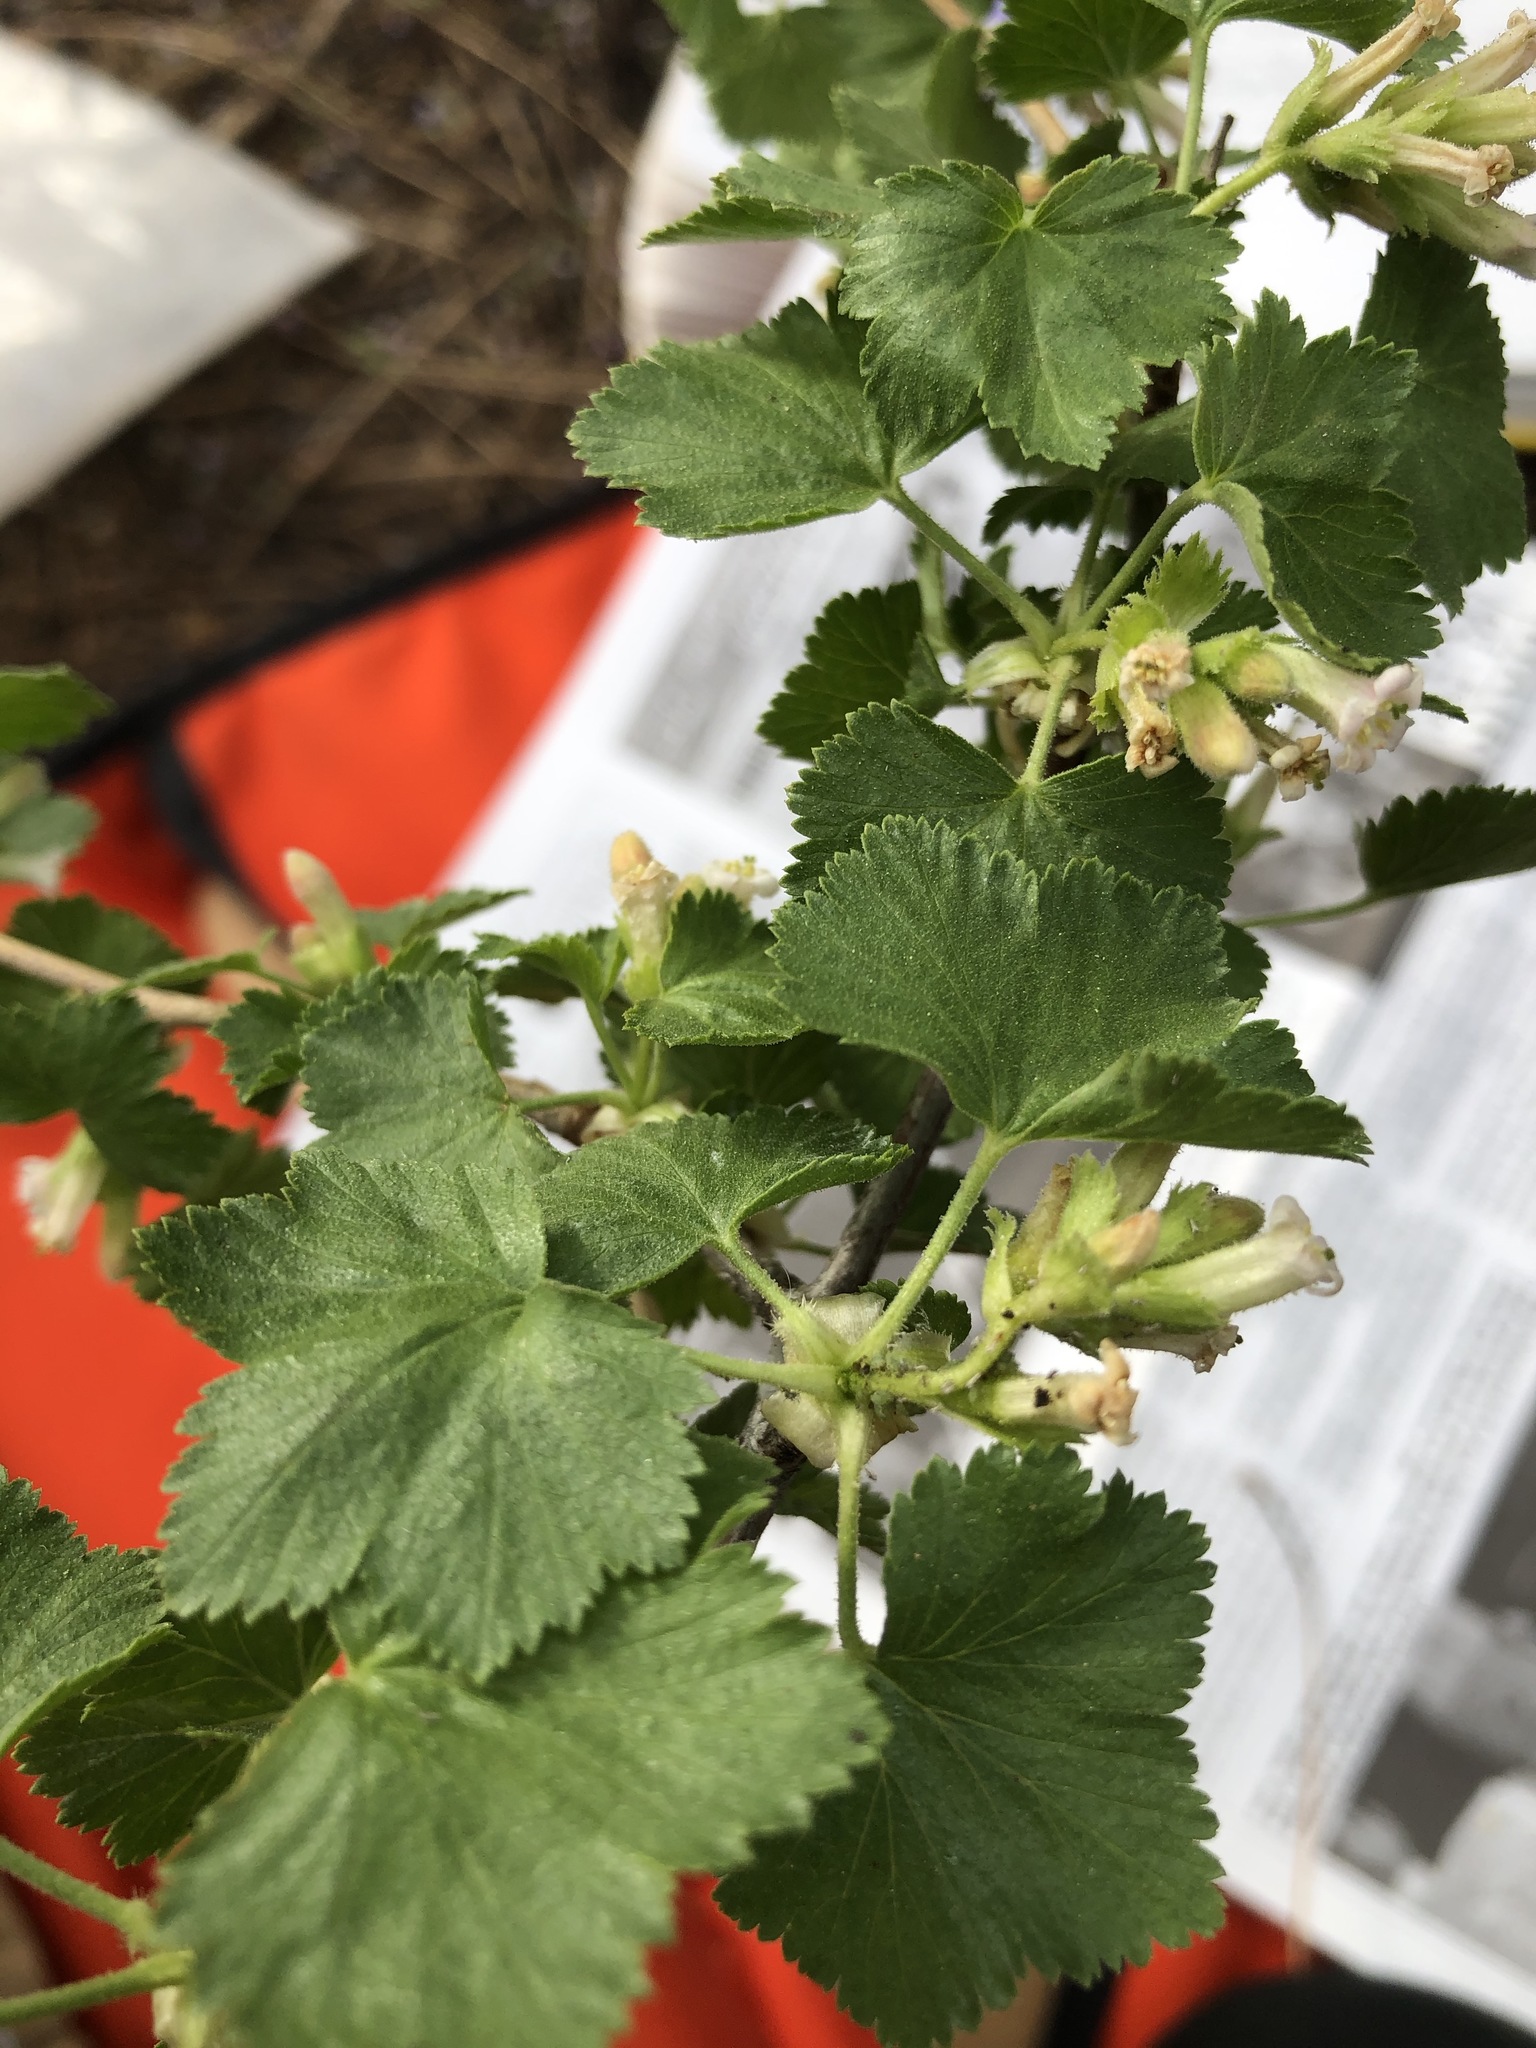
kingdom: Plantae
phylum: Tracheophyta
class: Magnoliopsida
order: Saxifragales
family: Grossulariaceae
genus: Ribes
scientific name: Ribes cereum
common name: Wax currant
